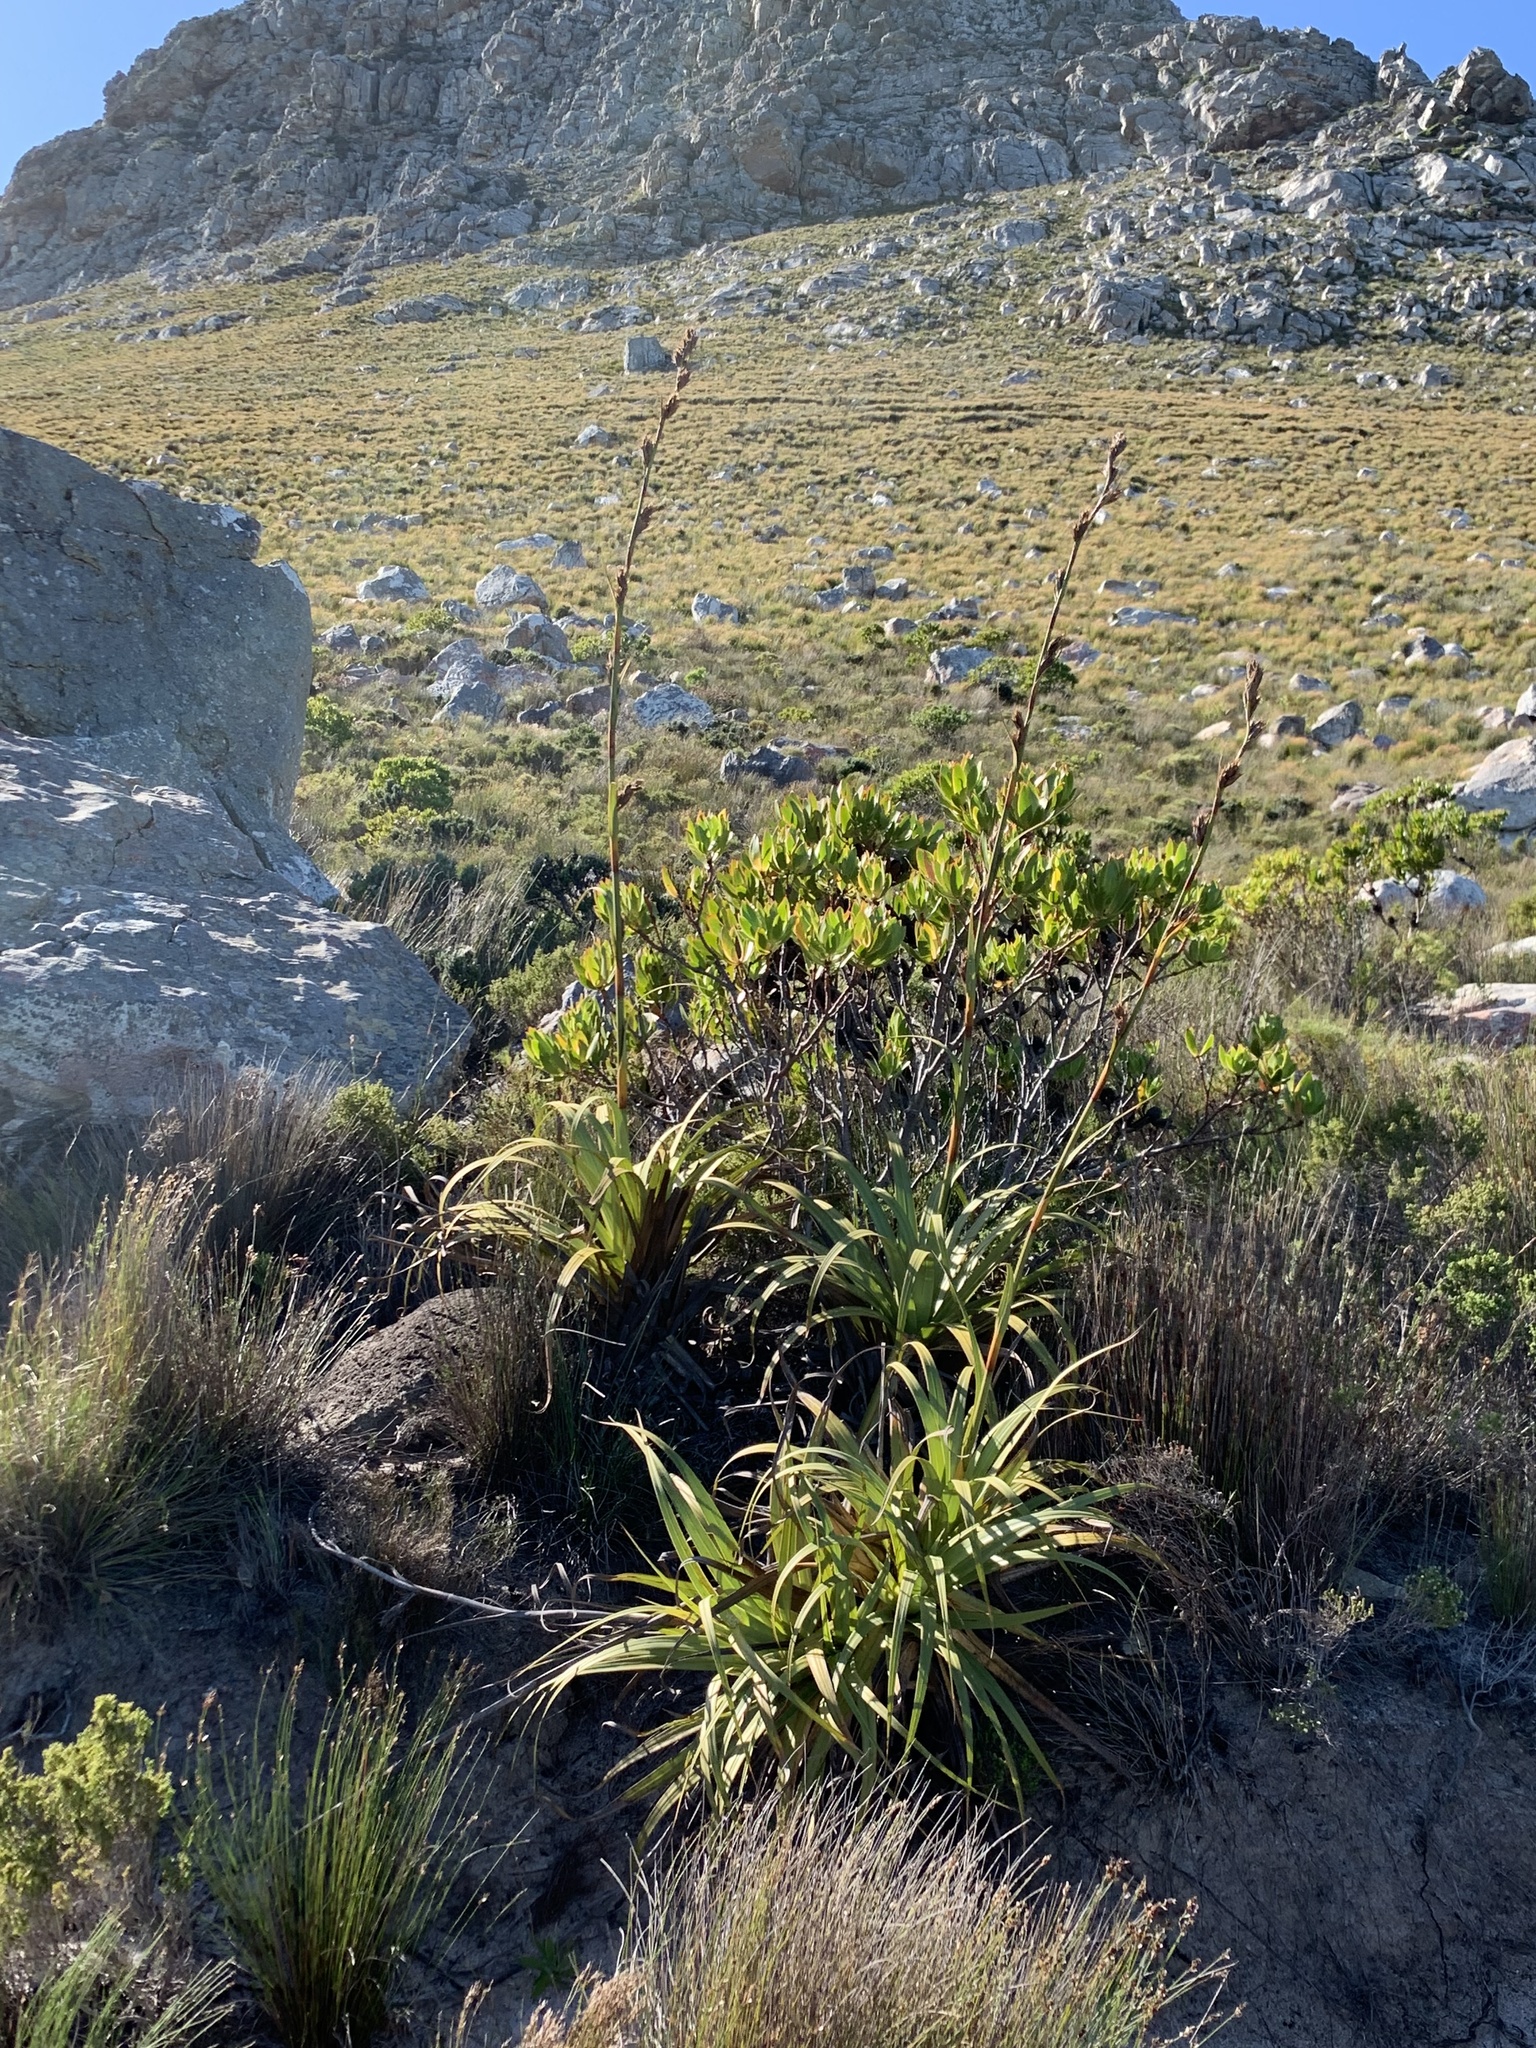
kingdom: Plantae
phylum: Tracheophyta
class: Liliopsida
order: Poales
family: Cyperaceae
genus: Tetraria
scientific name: Tetraria thermalis
